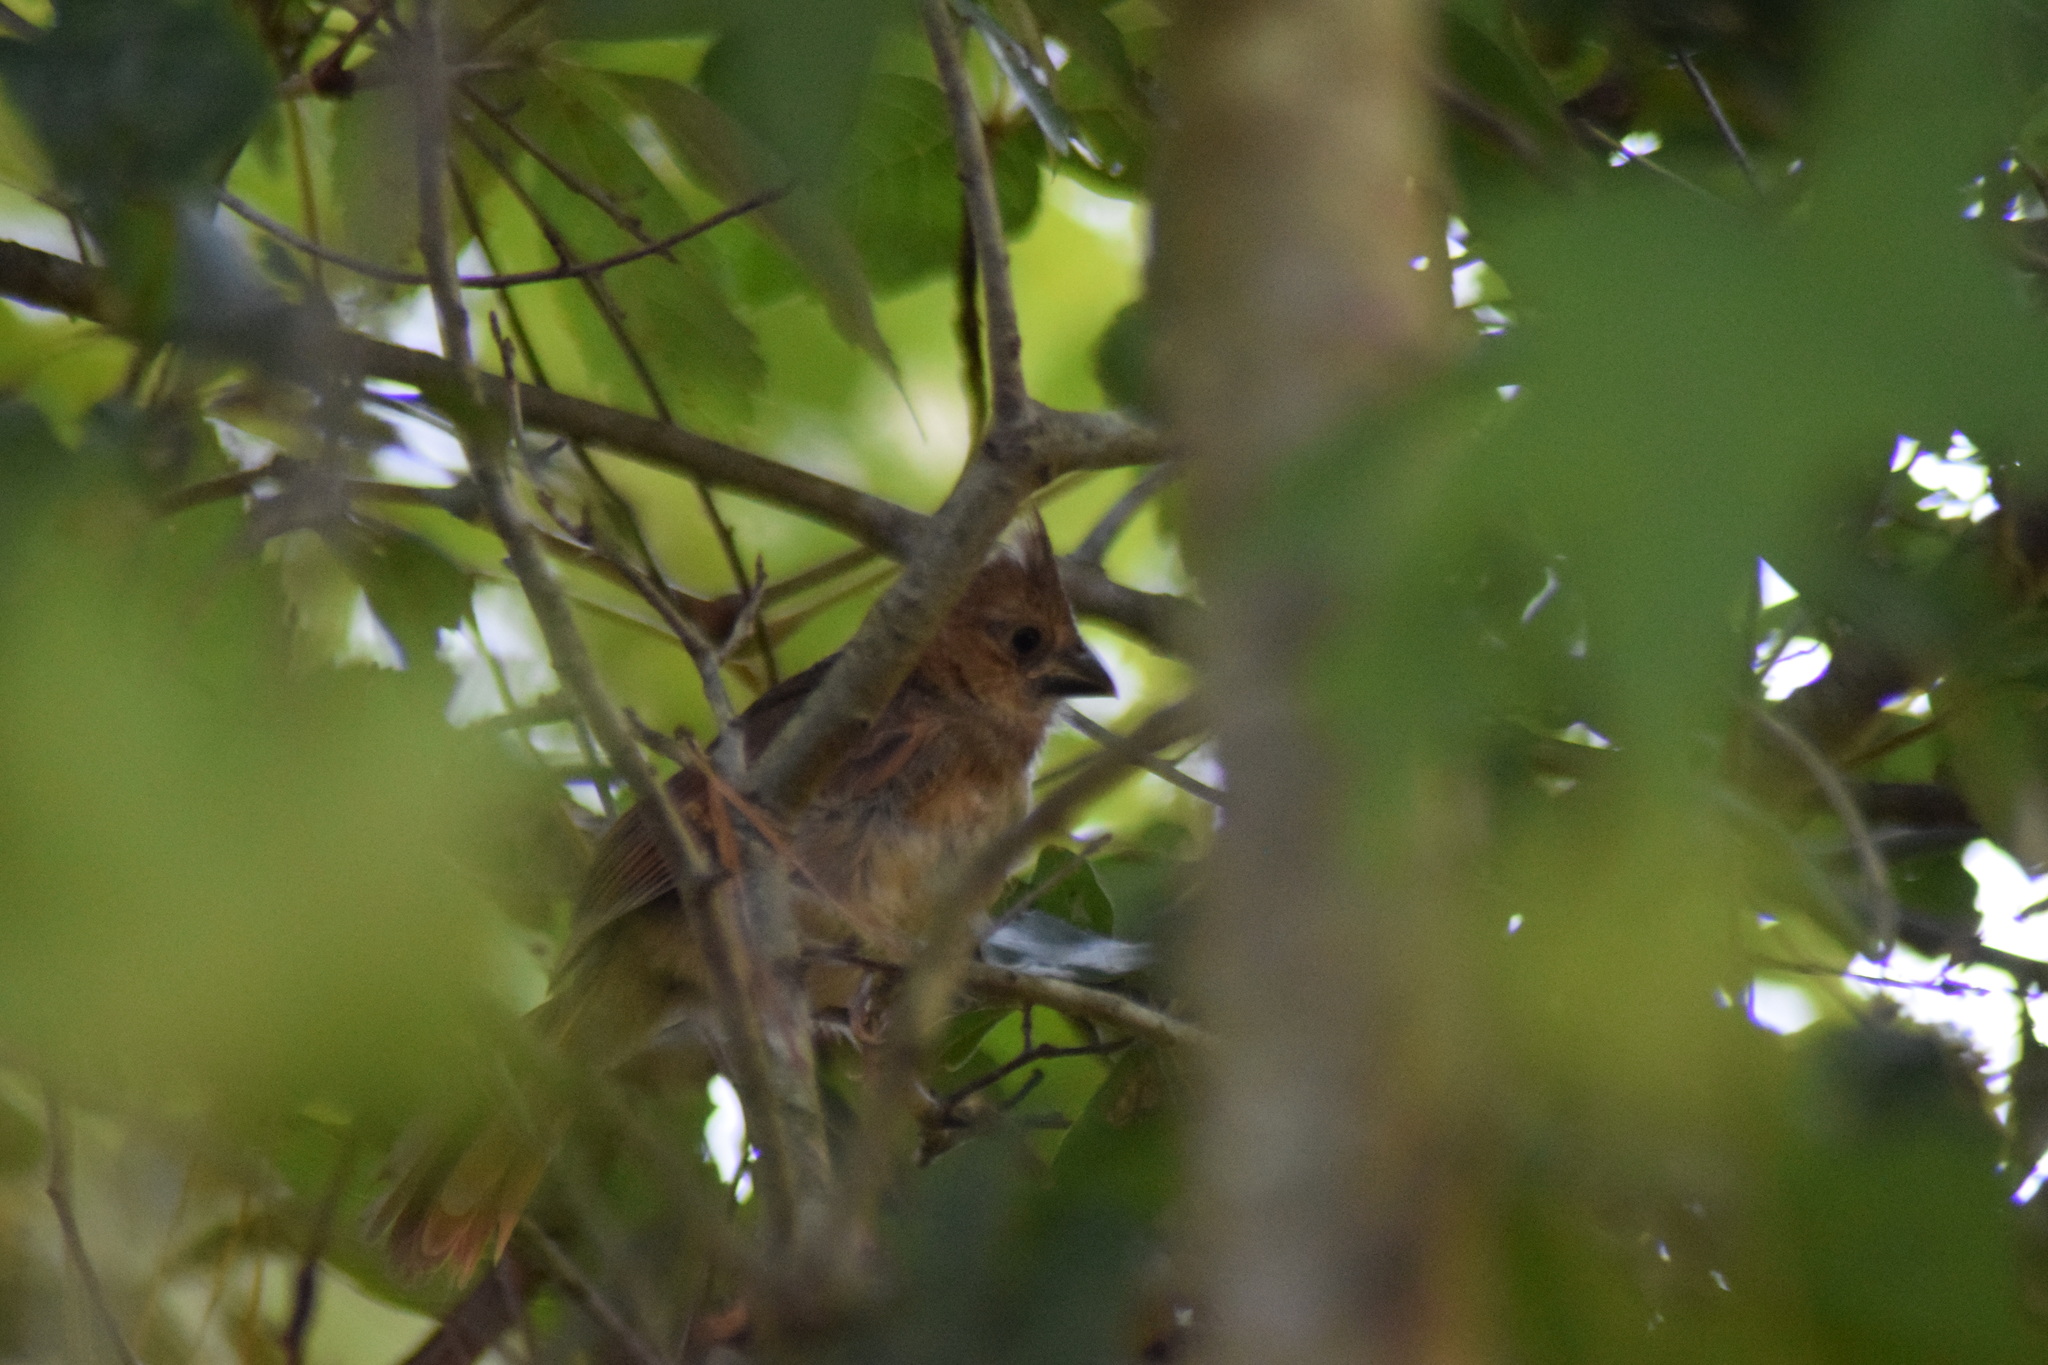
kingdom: Animalia
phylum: Chordata
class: Aves
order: Passeriformes
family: Cardinalidae
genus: Cardinalis
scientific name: Cardinalis cardinalis
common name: Northern cardinal
